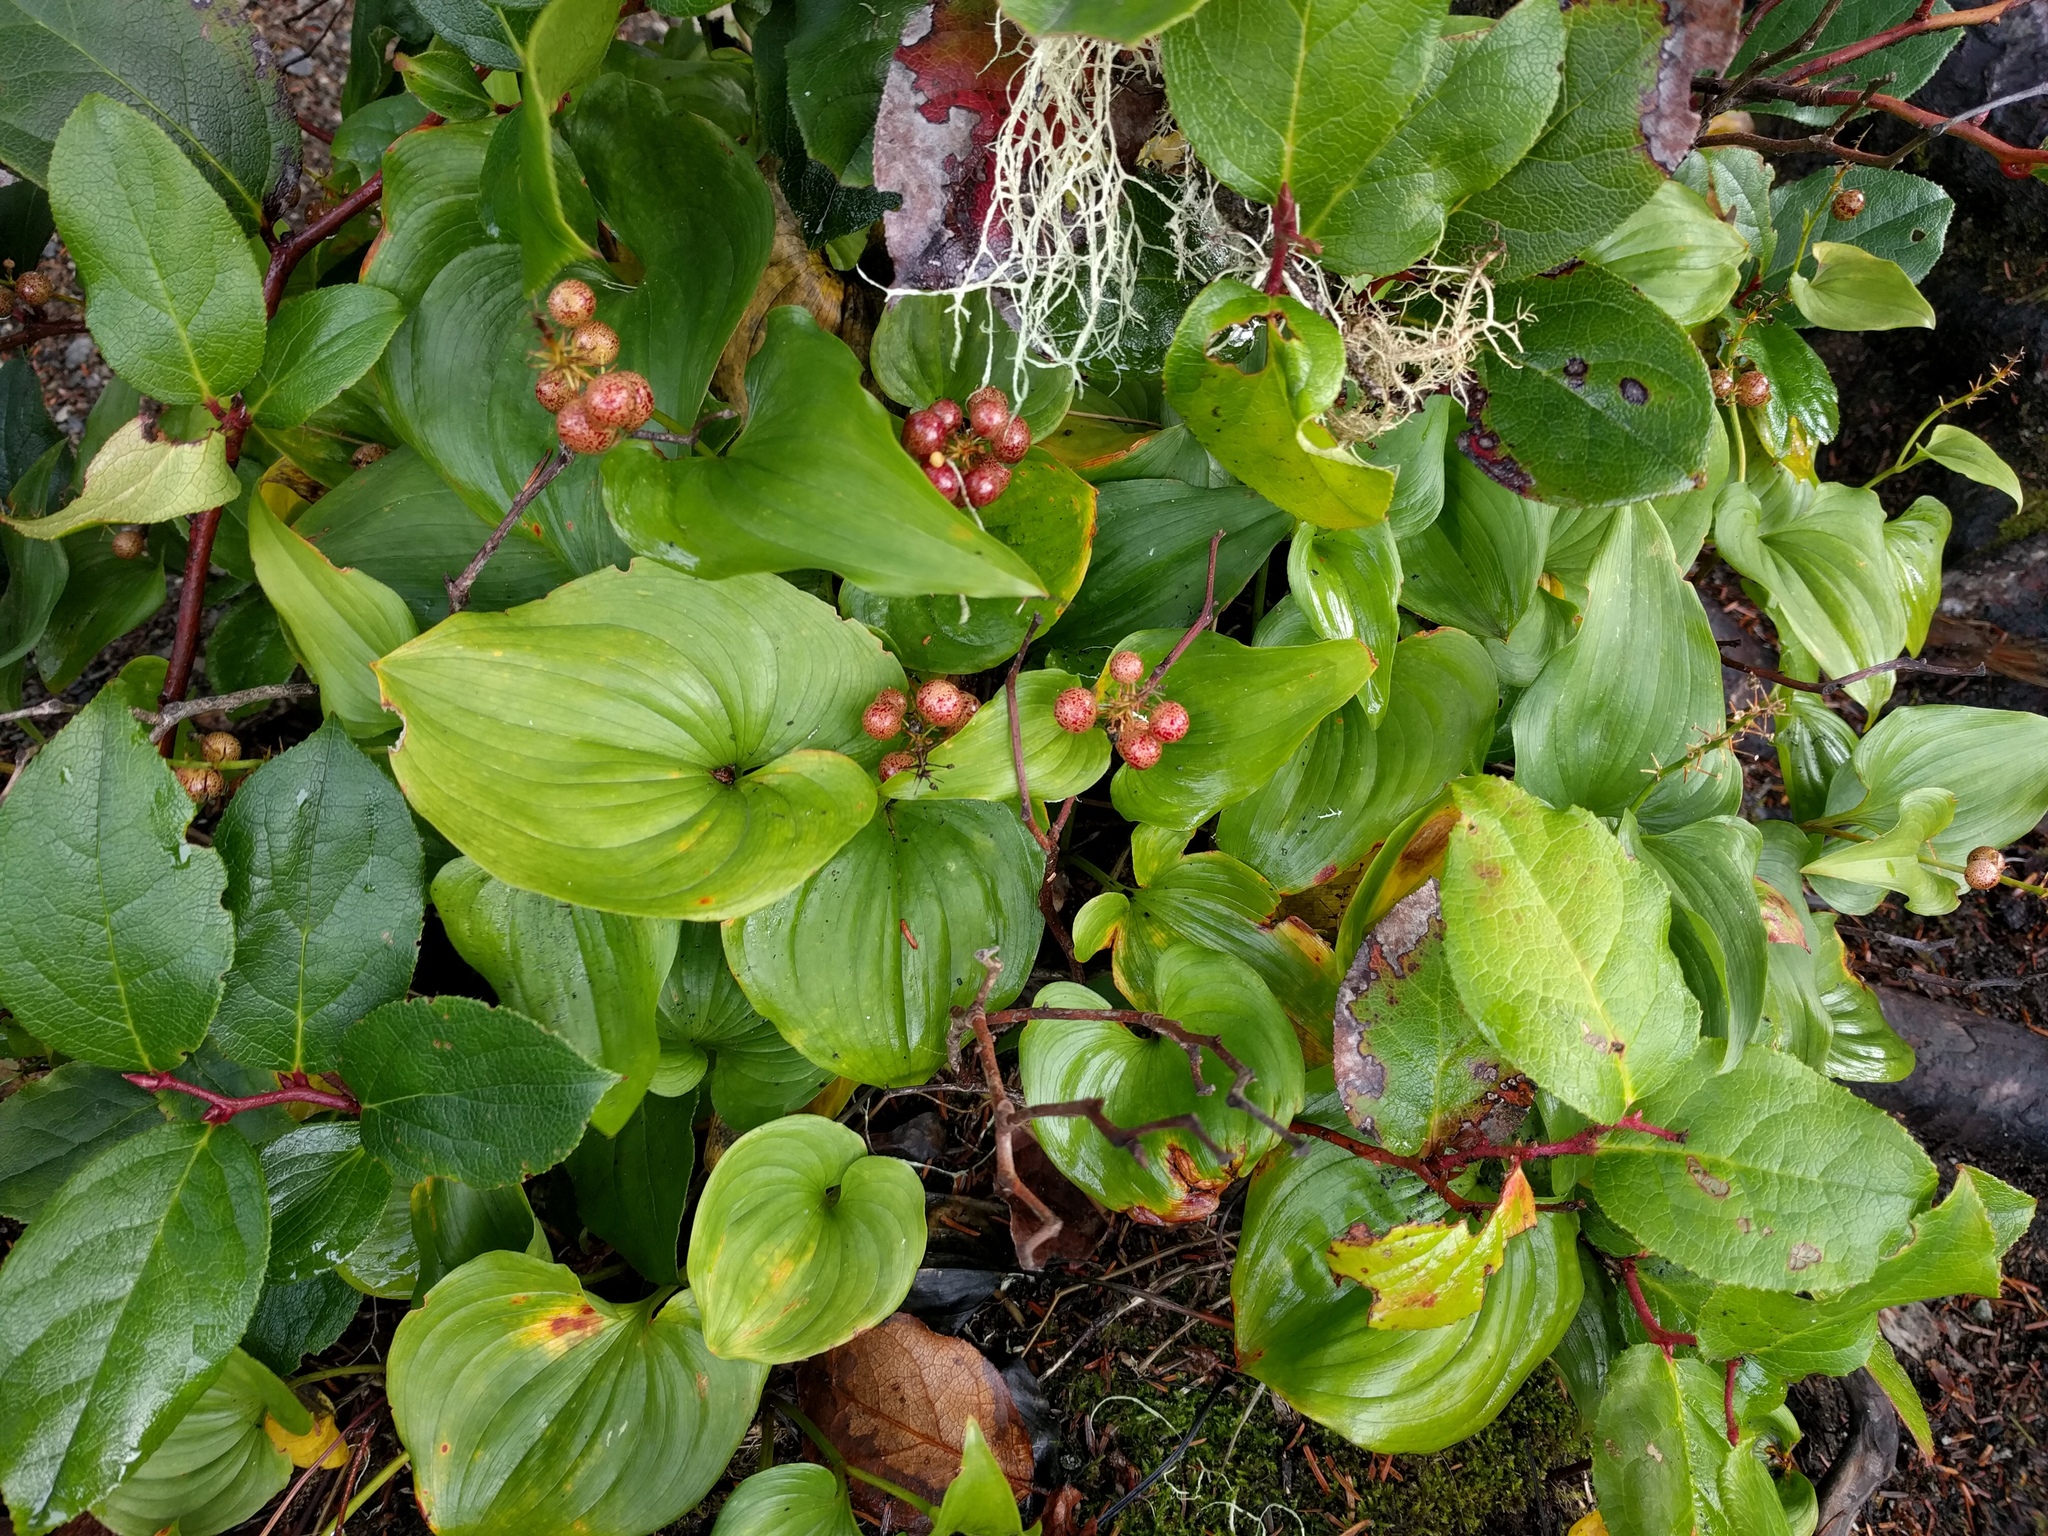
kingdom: Plantae
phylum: Tracheophyta
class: Liliopsida
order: Asparagales
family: Asparagaceae
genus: Maianthemum
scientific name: Maianthemum dilatatum
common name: False lily-of-the-valley
